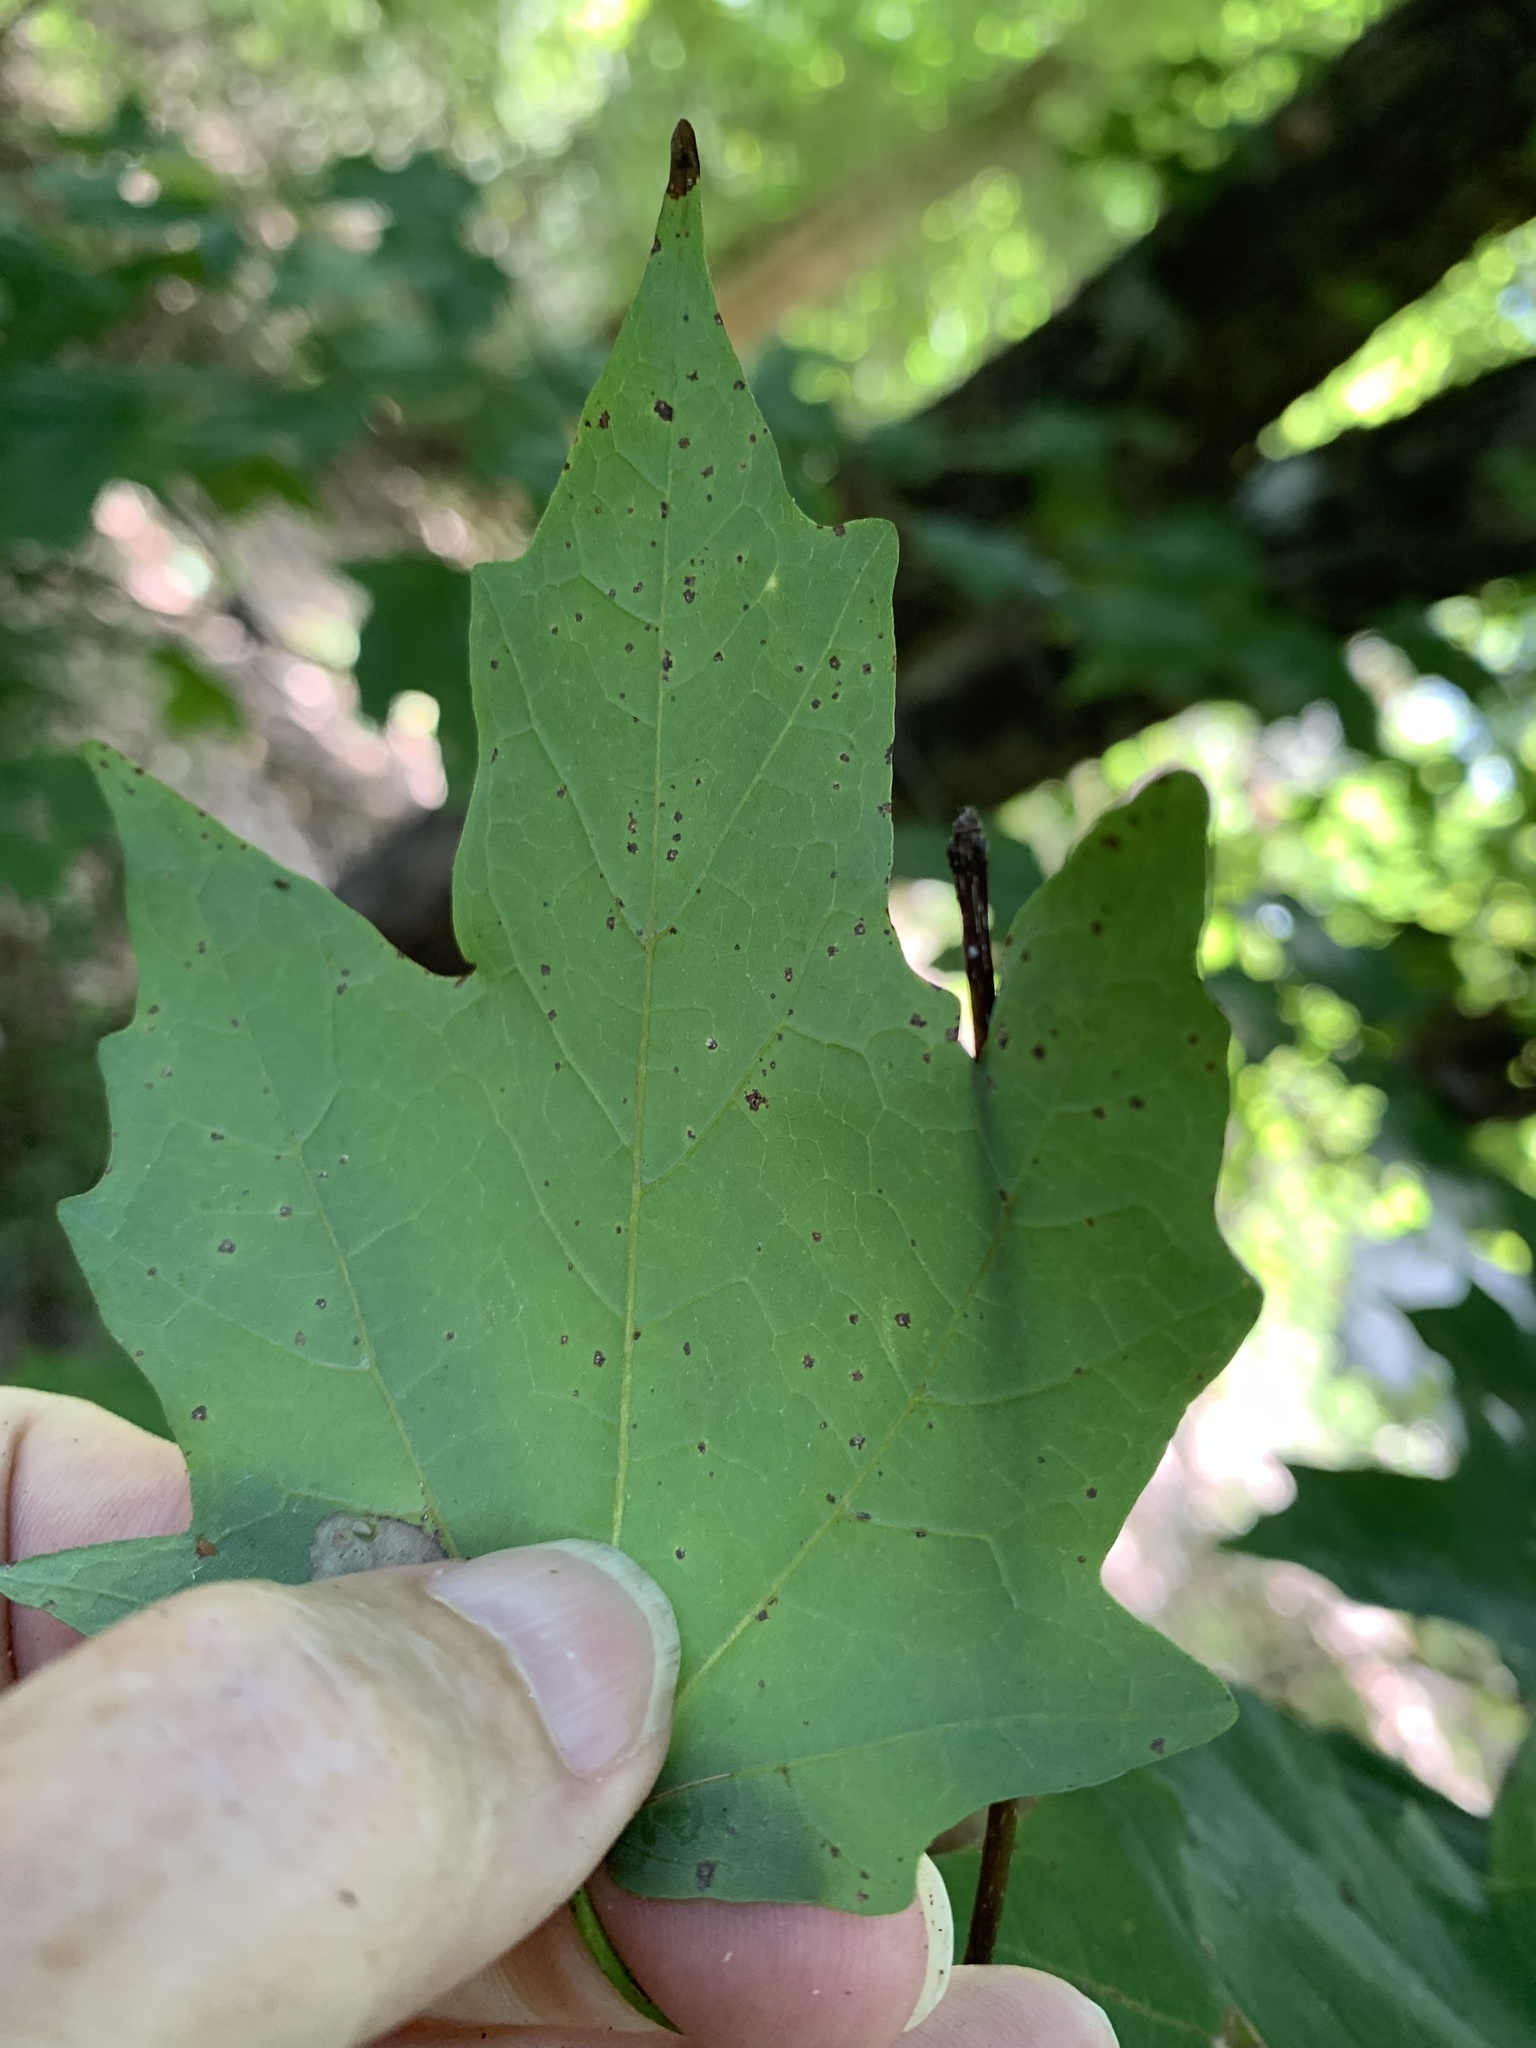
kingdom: Plantae
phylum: Tracheophyta
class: Magnoliopsida
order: Sapindales
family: Sapindaceae
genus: Acer
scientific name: Acer floridanum
